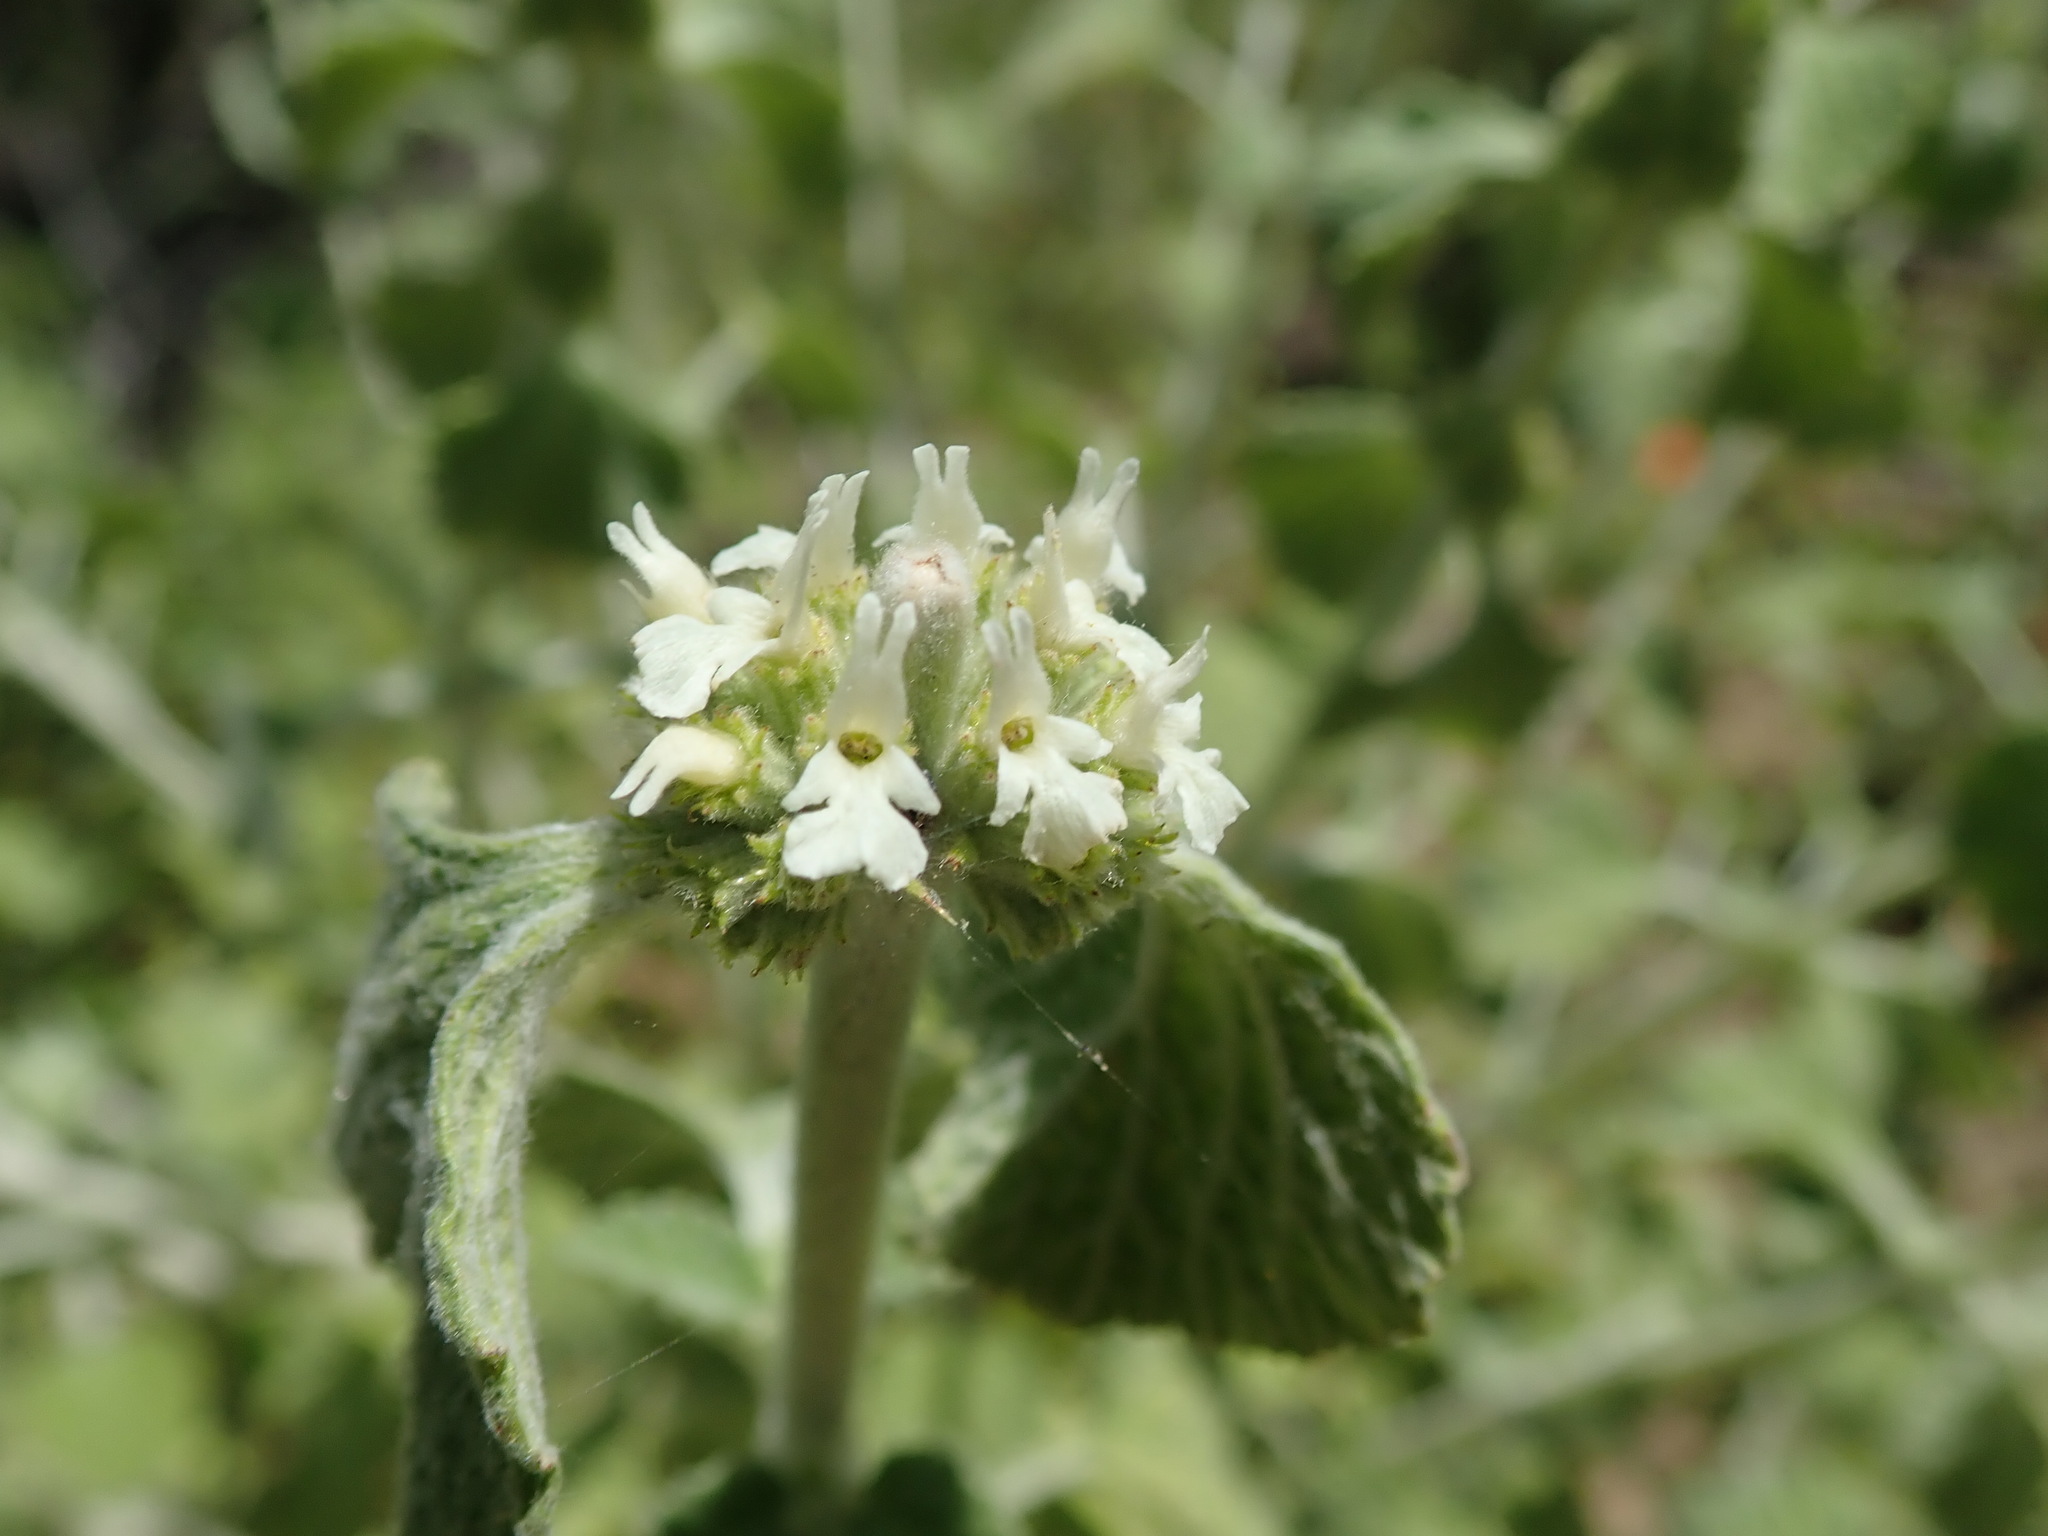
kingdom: Plantae
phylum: Tracheophyta
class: Magnoliopsida
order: Lamiales
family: Lamiaceae
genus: Marrubium
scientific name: Marrubium vulgare
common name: Horehound
